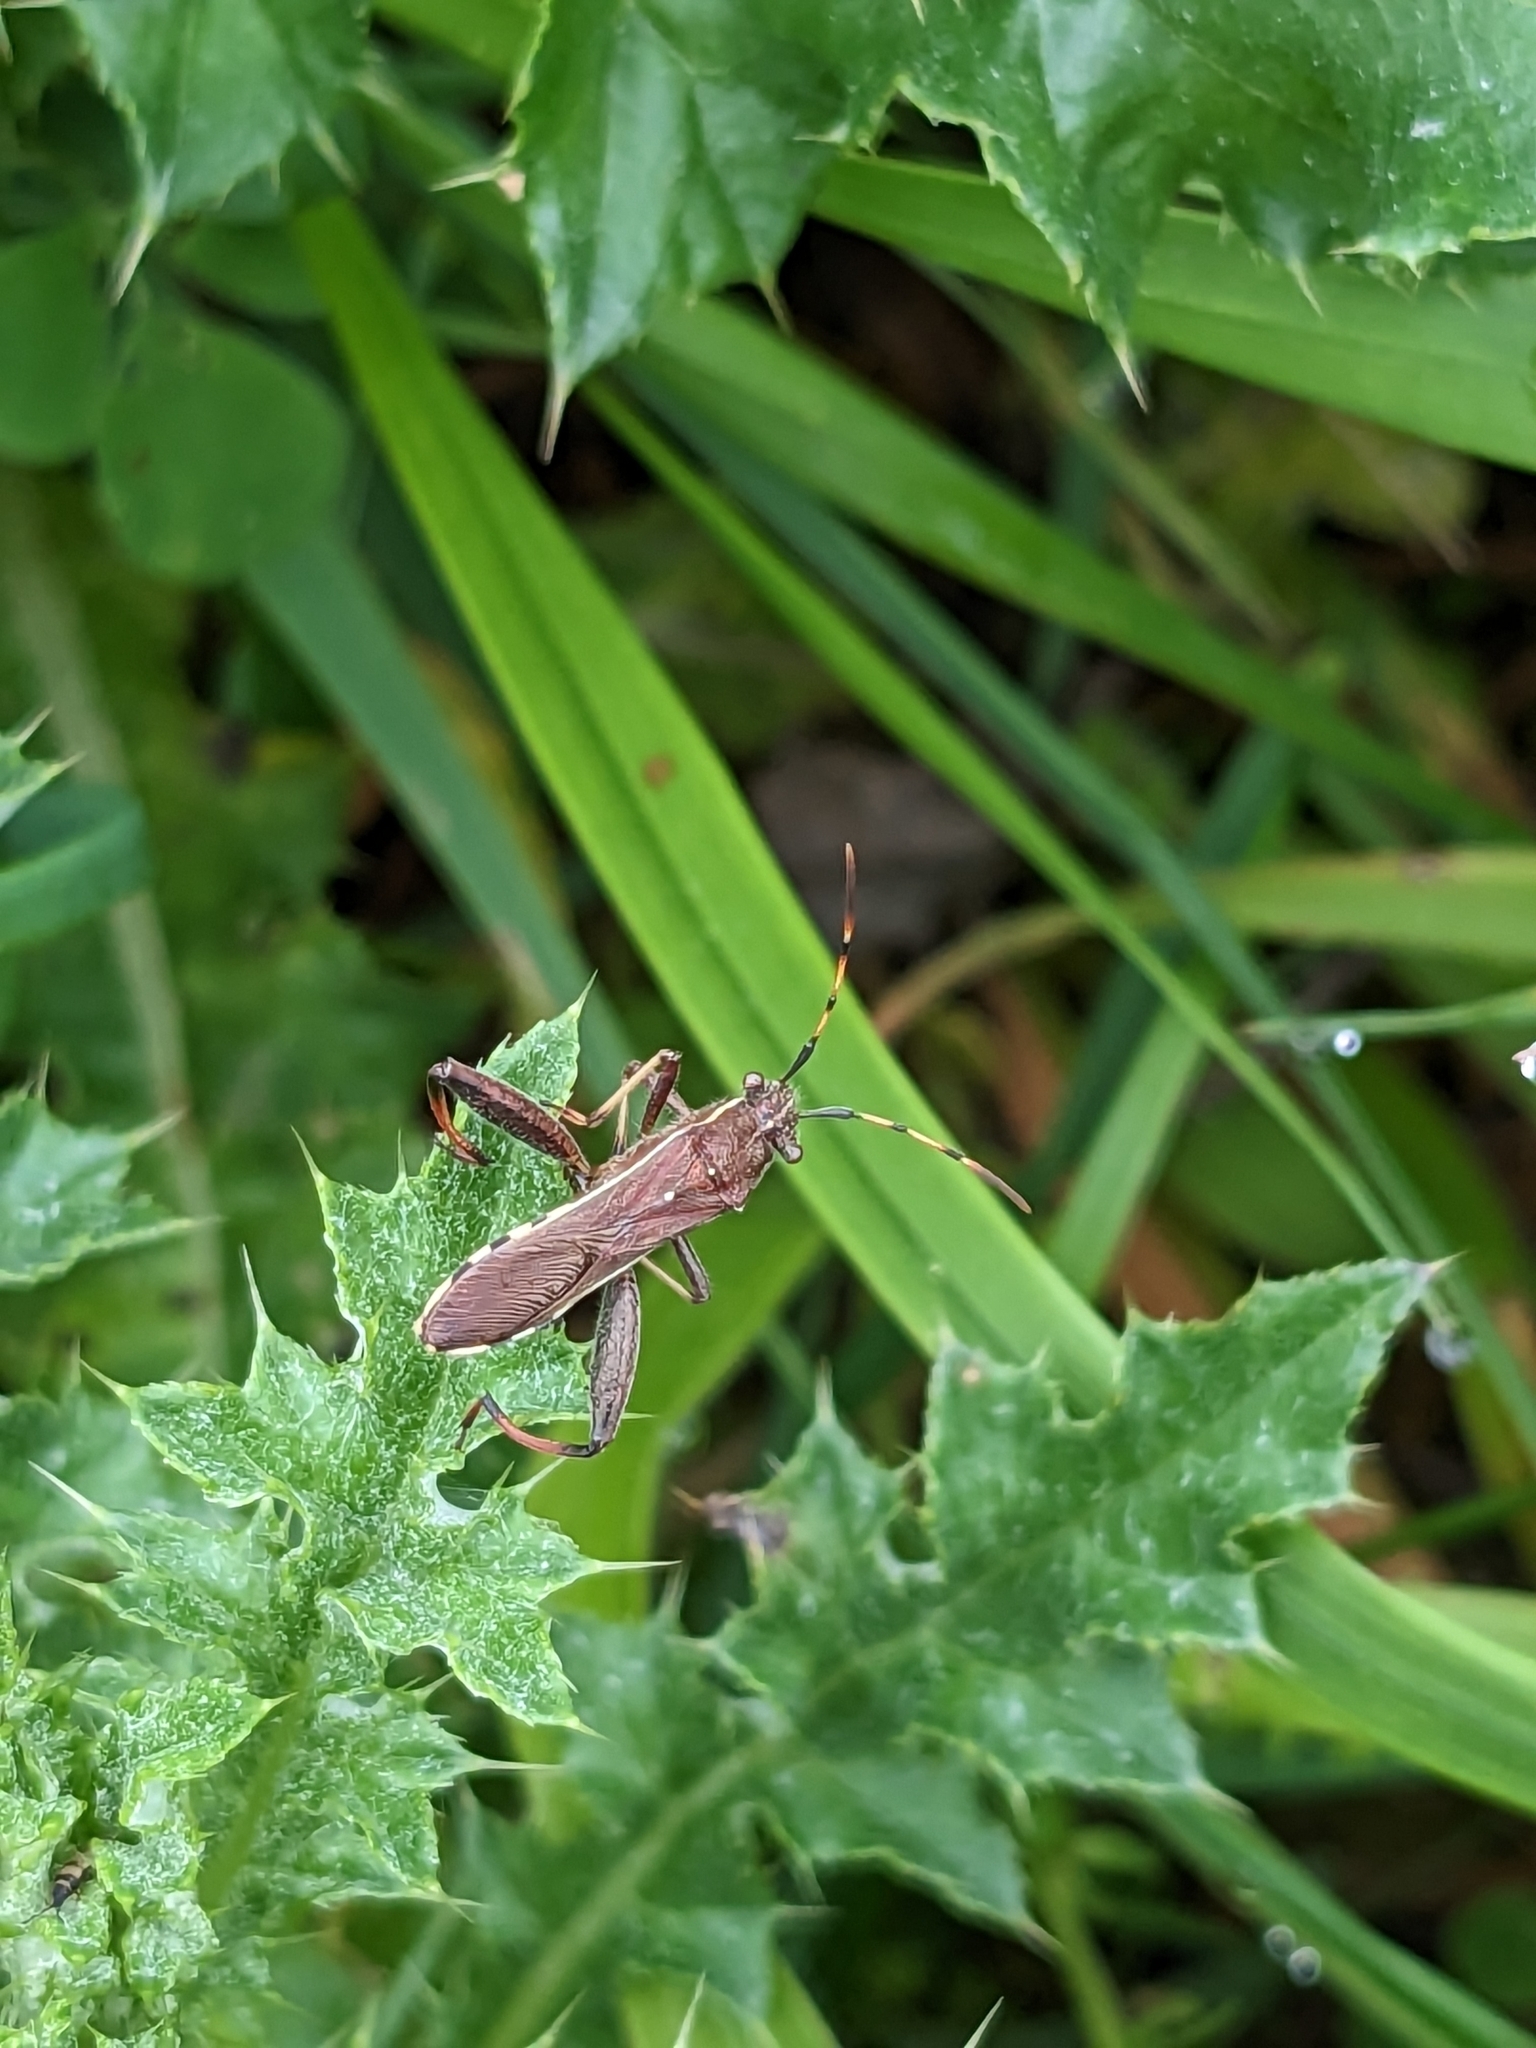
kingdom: Animalia
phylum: Arthropoda
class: Insecta
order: Hemiptera
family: Alydidae
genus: Camptopus
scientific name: Camptopus lateralis
